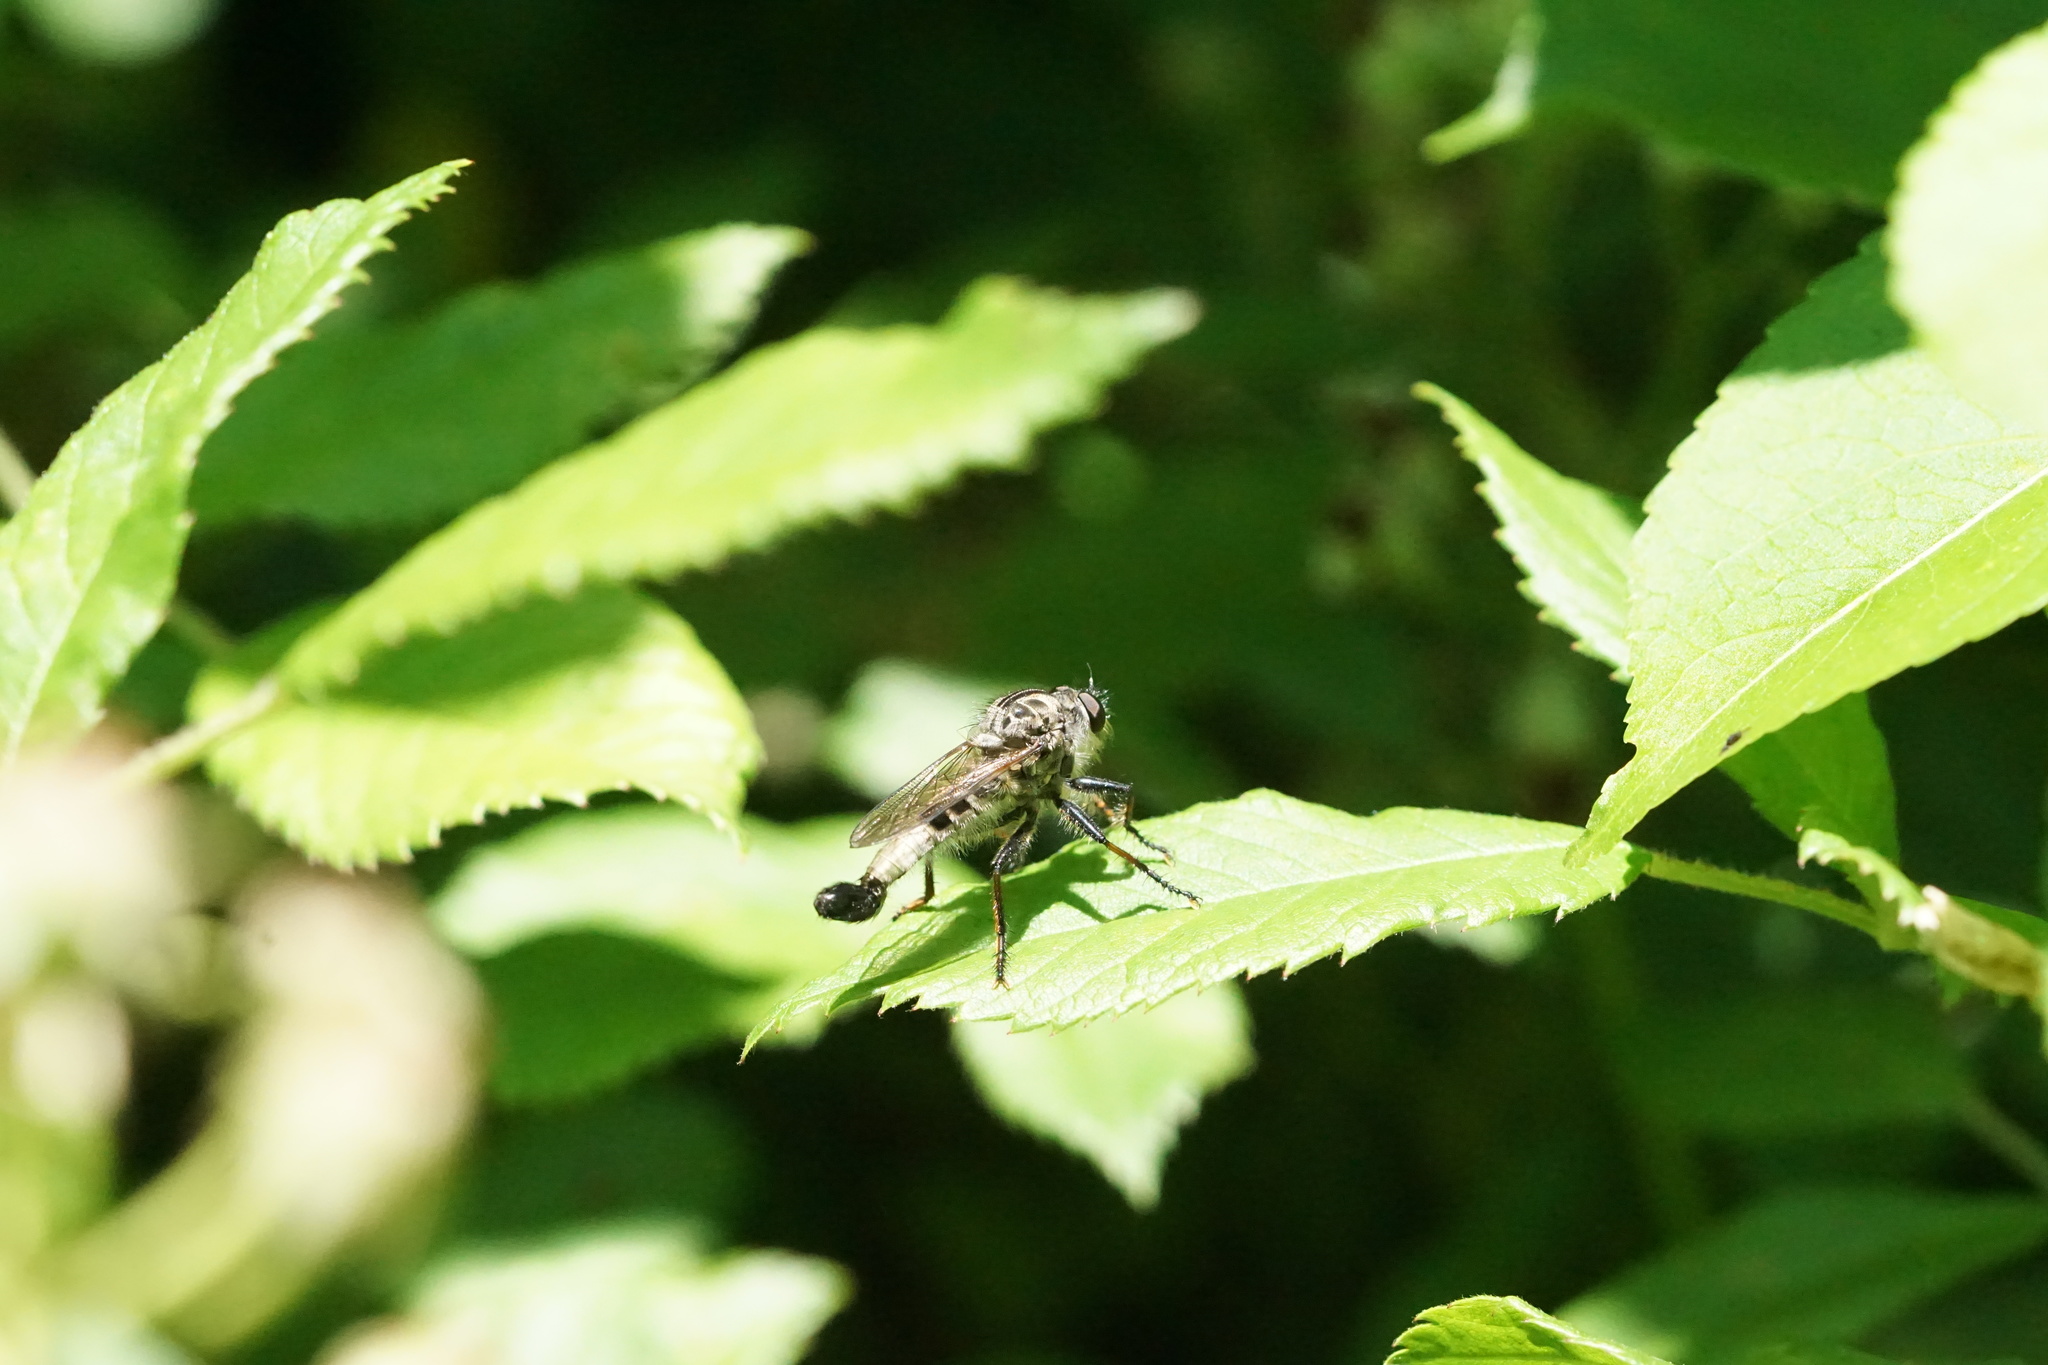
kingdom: Animalia
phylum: Arthropoda
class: Insecta
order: Diptera
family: Asilidae
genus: Efferia
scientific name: Efferia aestuans
